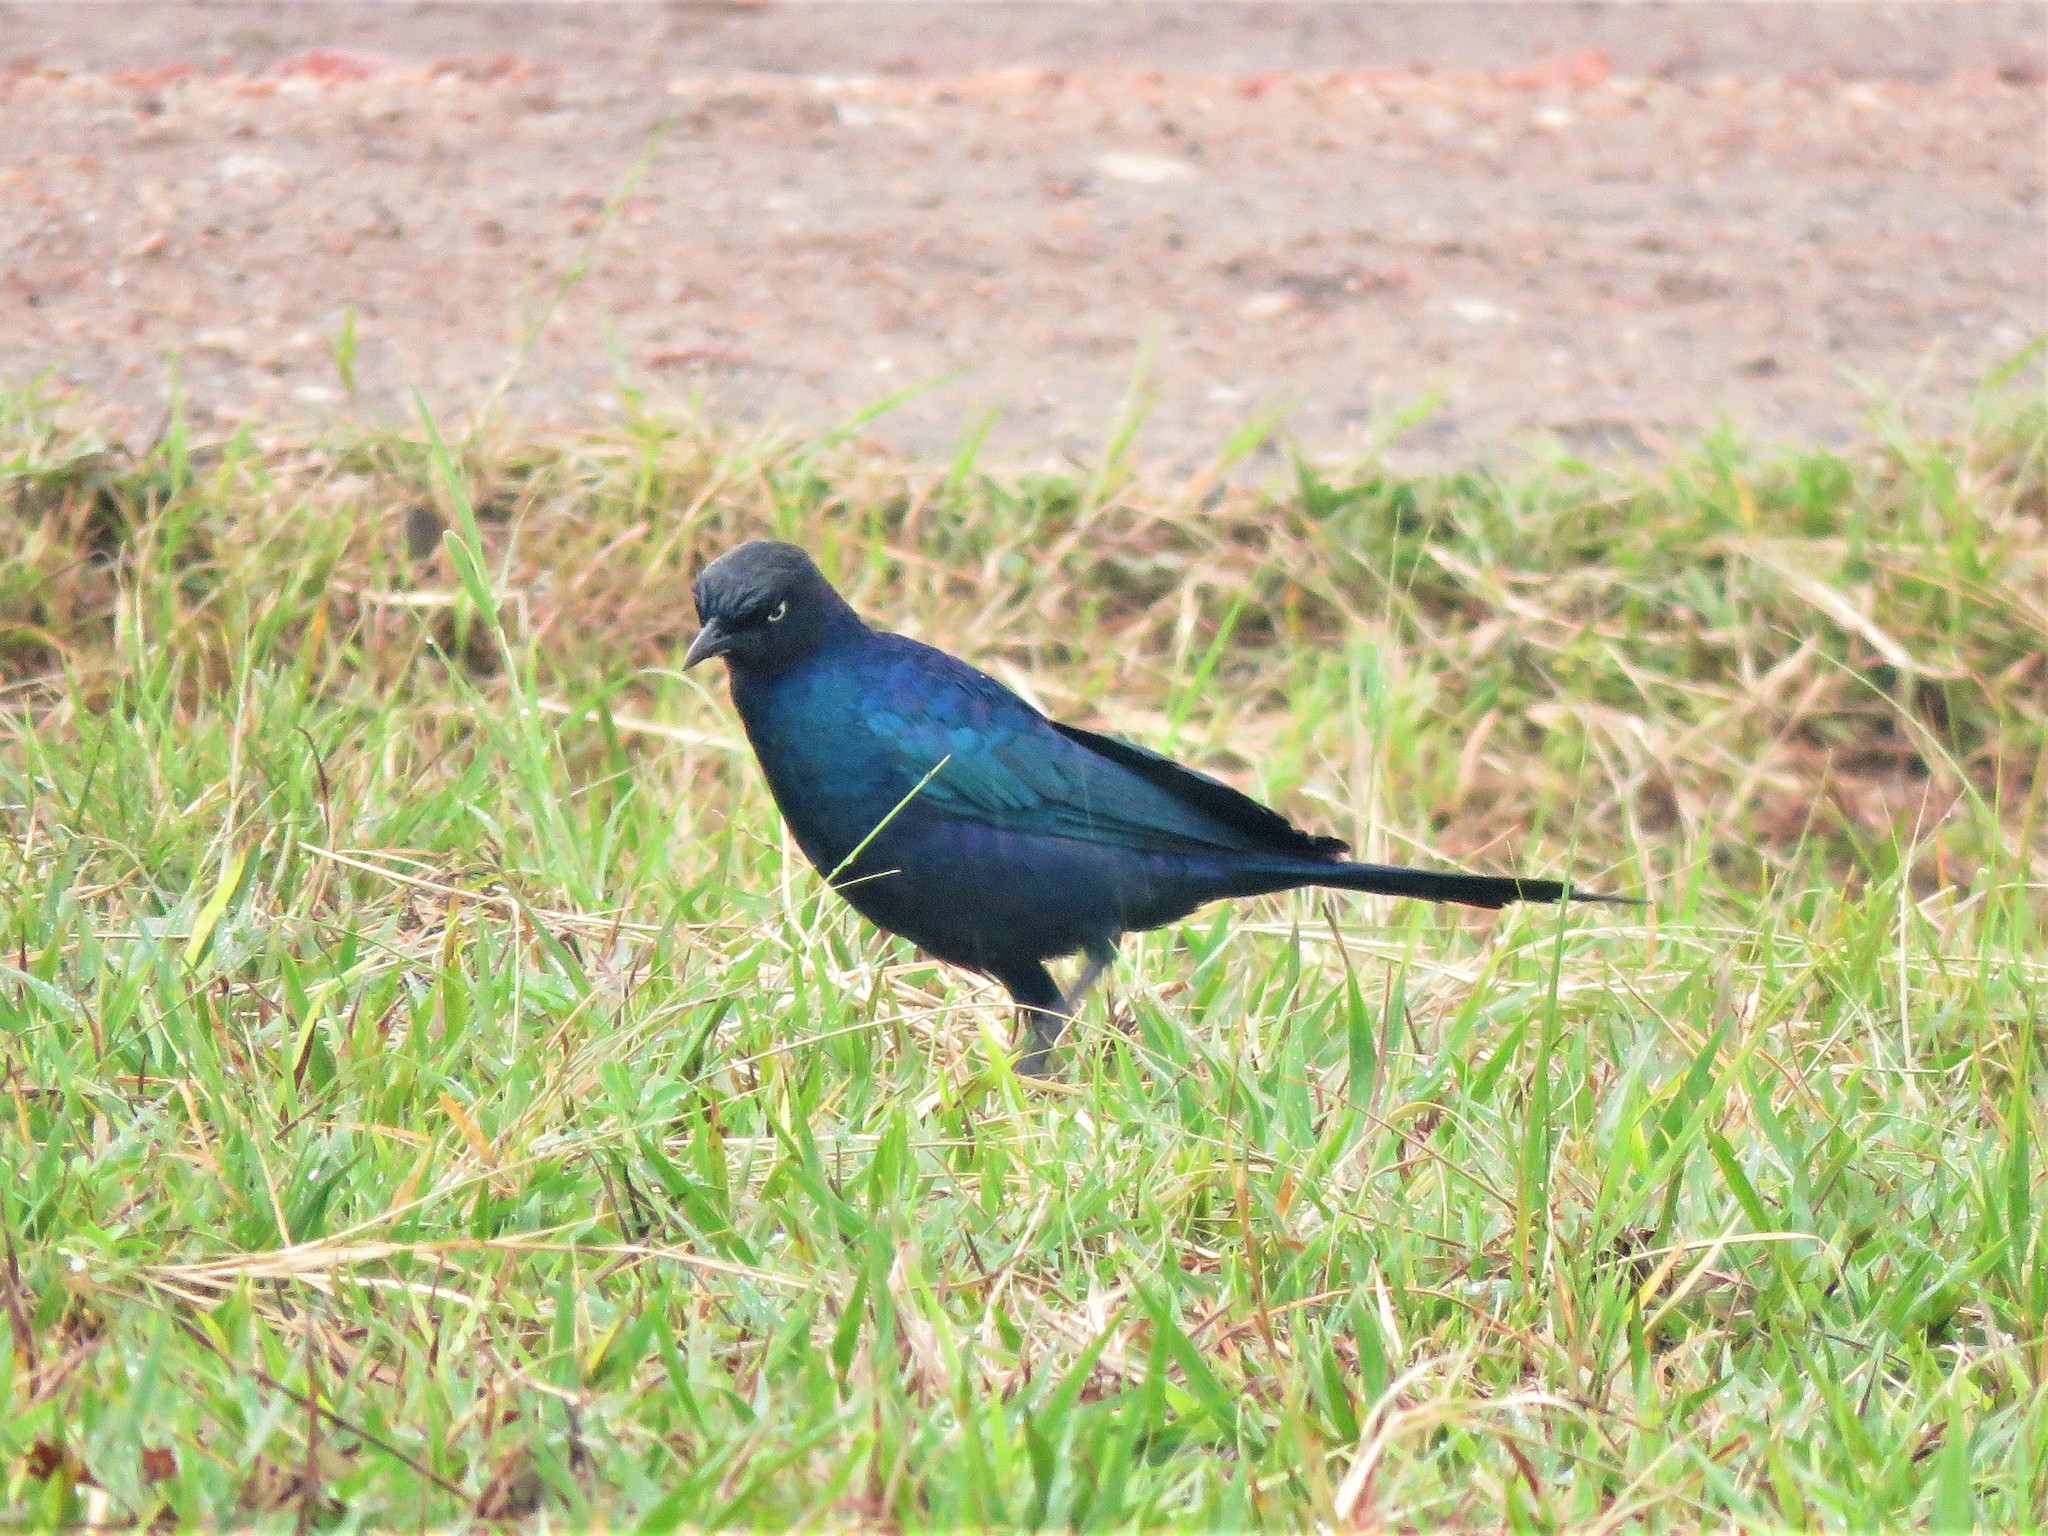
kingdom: Animalia
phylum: Chordata
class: Aves
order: Passeriformes
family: Sturnidae
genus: Lamprotornis
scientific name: Lamprotornis purpuroptera
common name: Rüppell's starling
